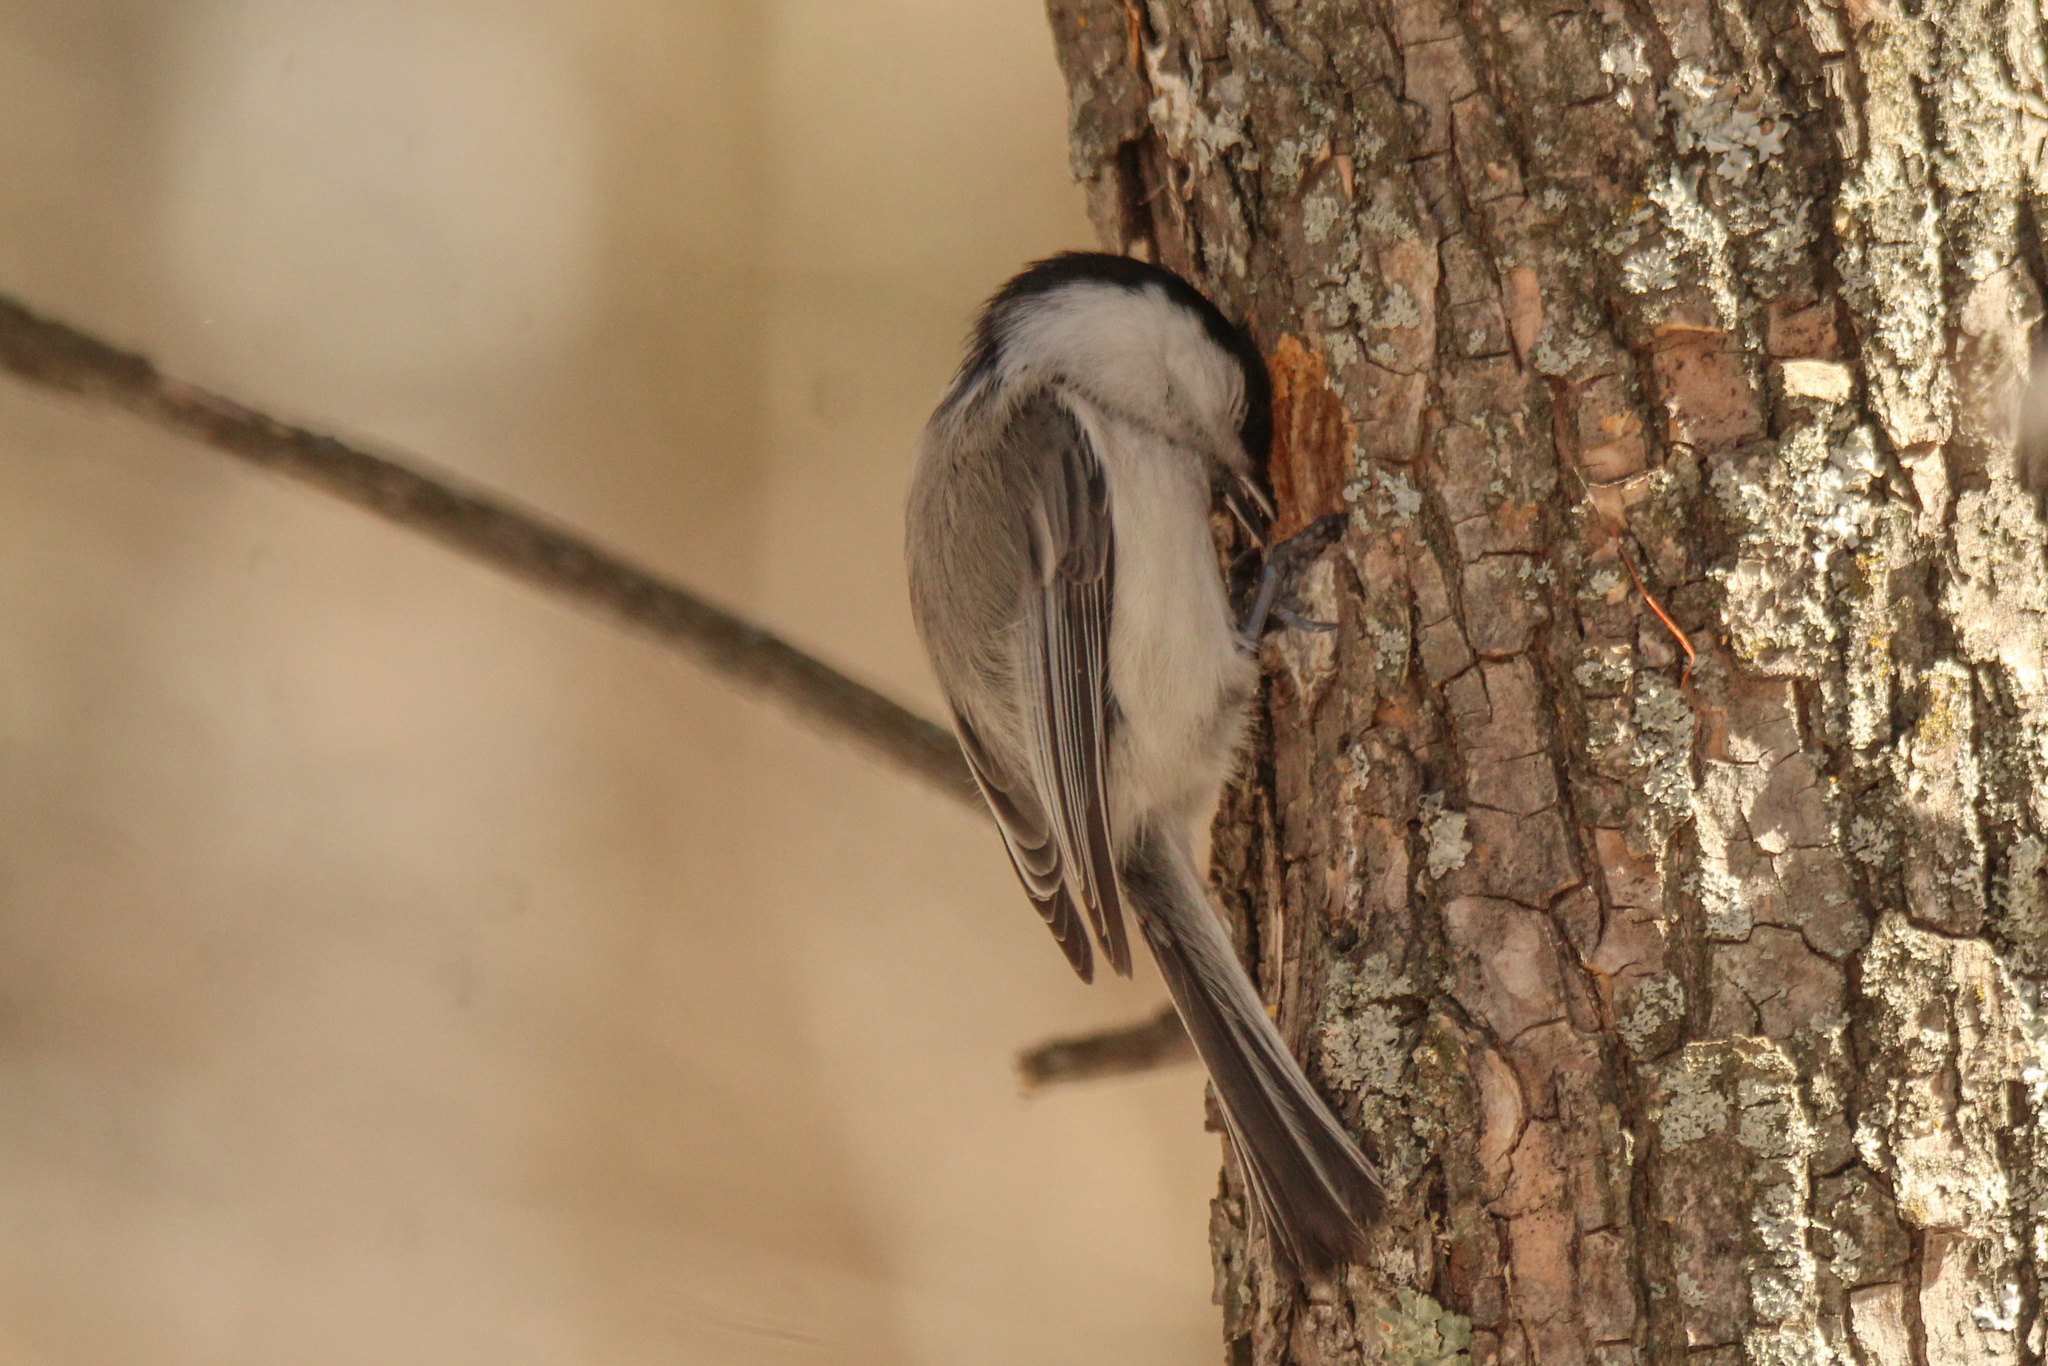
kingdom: Animalia
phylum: Chordata
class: Aves
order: Passeriformes
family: Paridae
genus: Poecile
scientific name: Poecile montanus
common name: Willow tit
